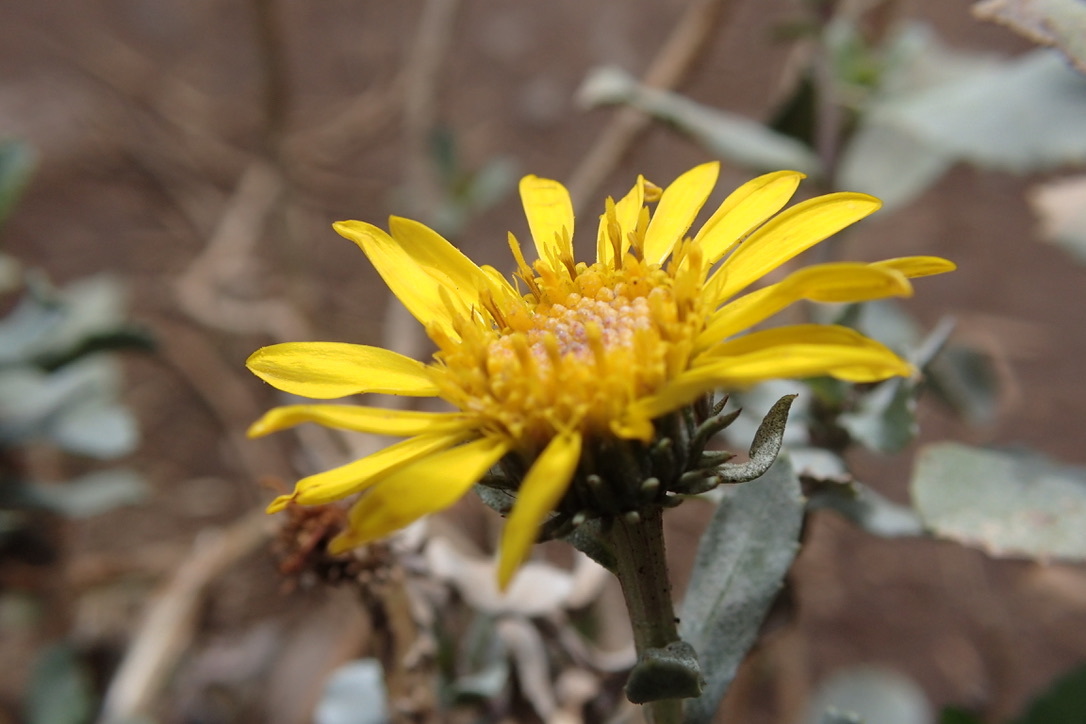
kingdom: Plantae
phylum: Tracheophyta
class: Magnoliopsida
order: Asterales
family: Asteraceae
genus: Grindelia
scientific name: Grindelia tarapacana
